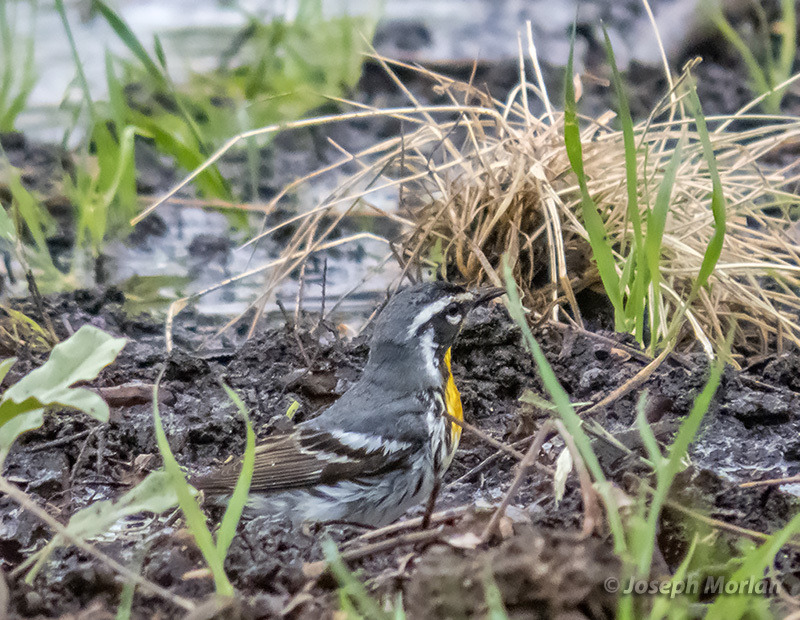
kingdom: Animalia
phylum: Chordata
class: Aves
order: Passeriformes
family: Parulidae
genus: Setophaga
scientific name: Setophaga dominica
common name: Yellow-throated warbler
